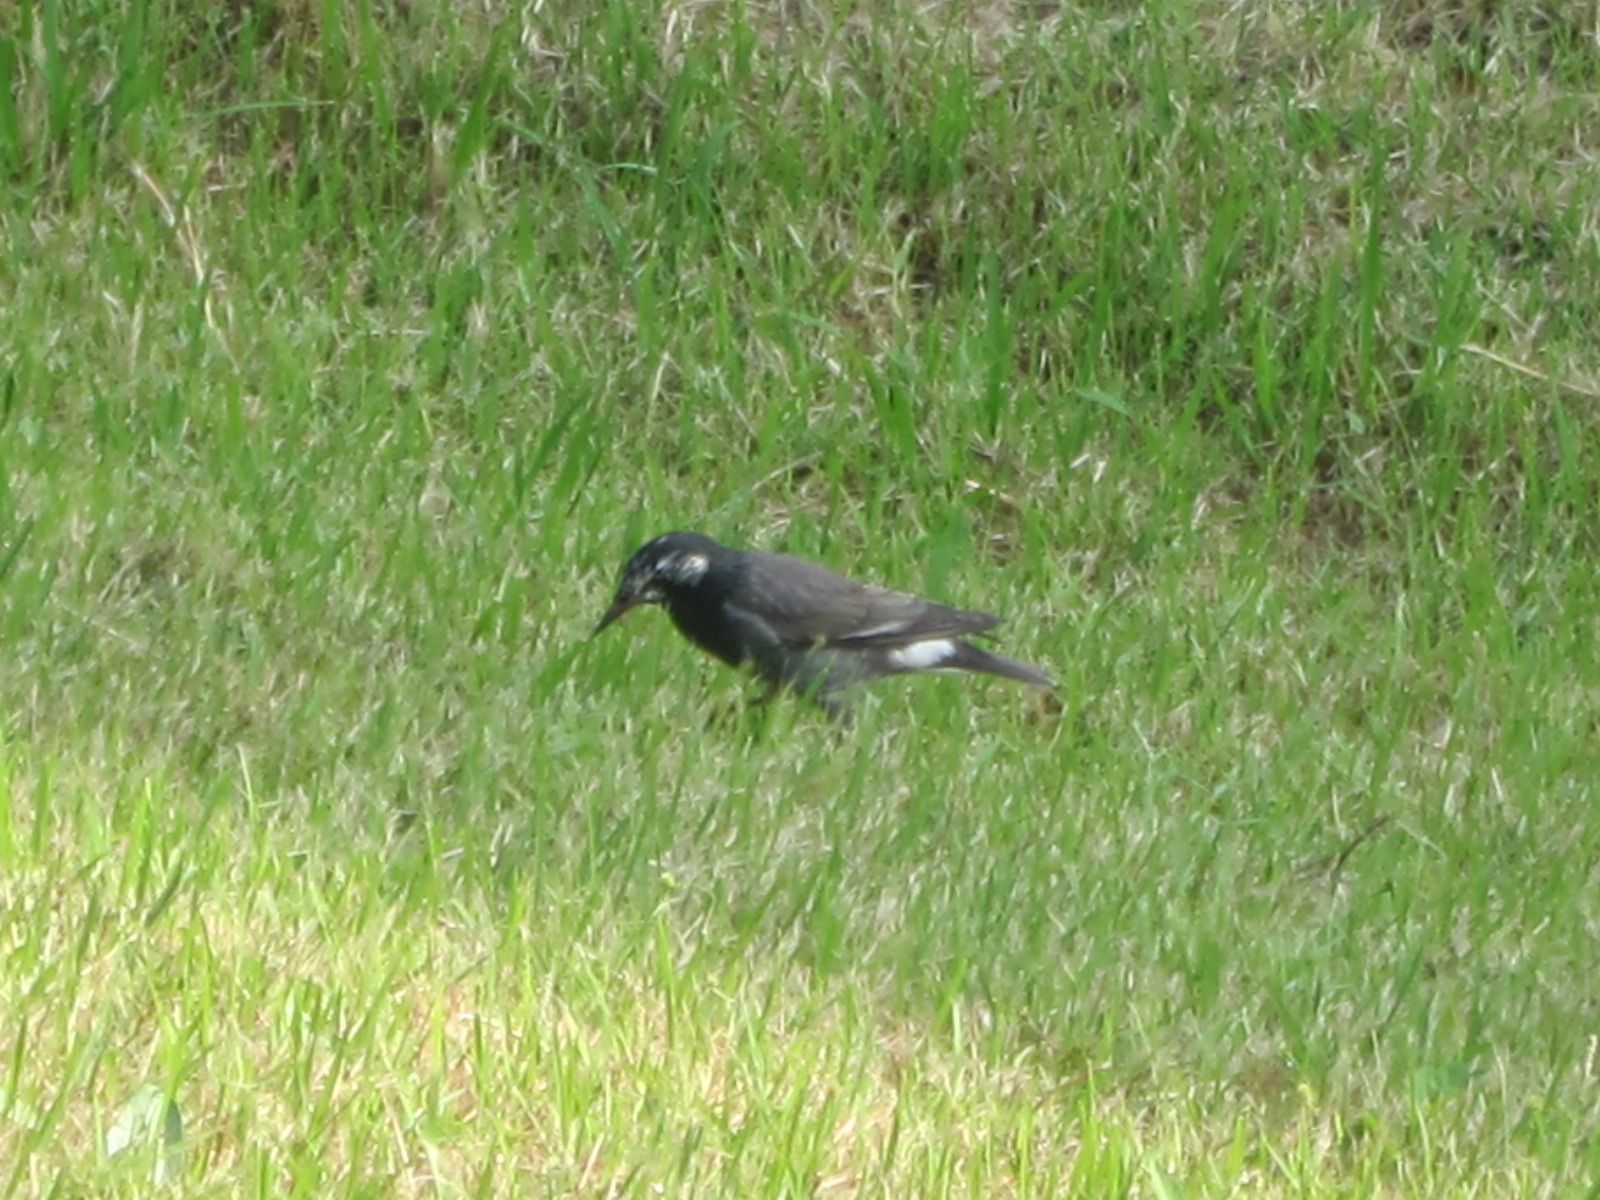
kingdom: Animalia
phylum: Chordata
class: Aves
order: Passeriformes
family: Sturnidae
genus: Spodiopsar
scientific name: Spodiopsar cineraceus
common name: White-cheeked starling
